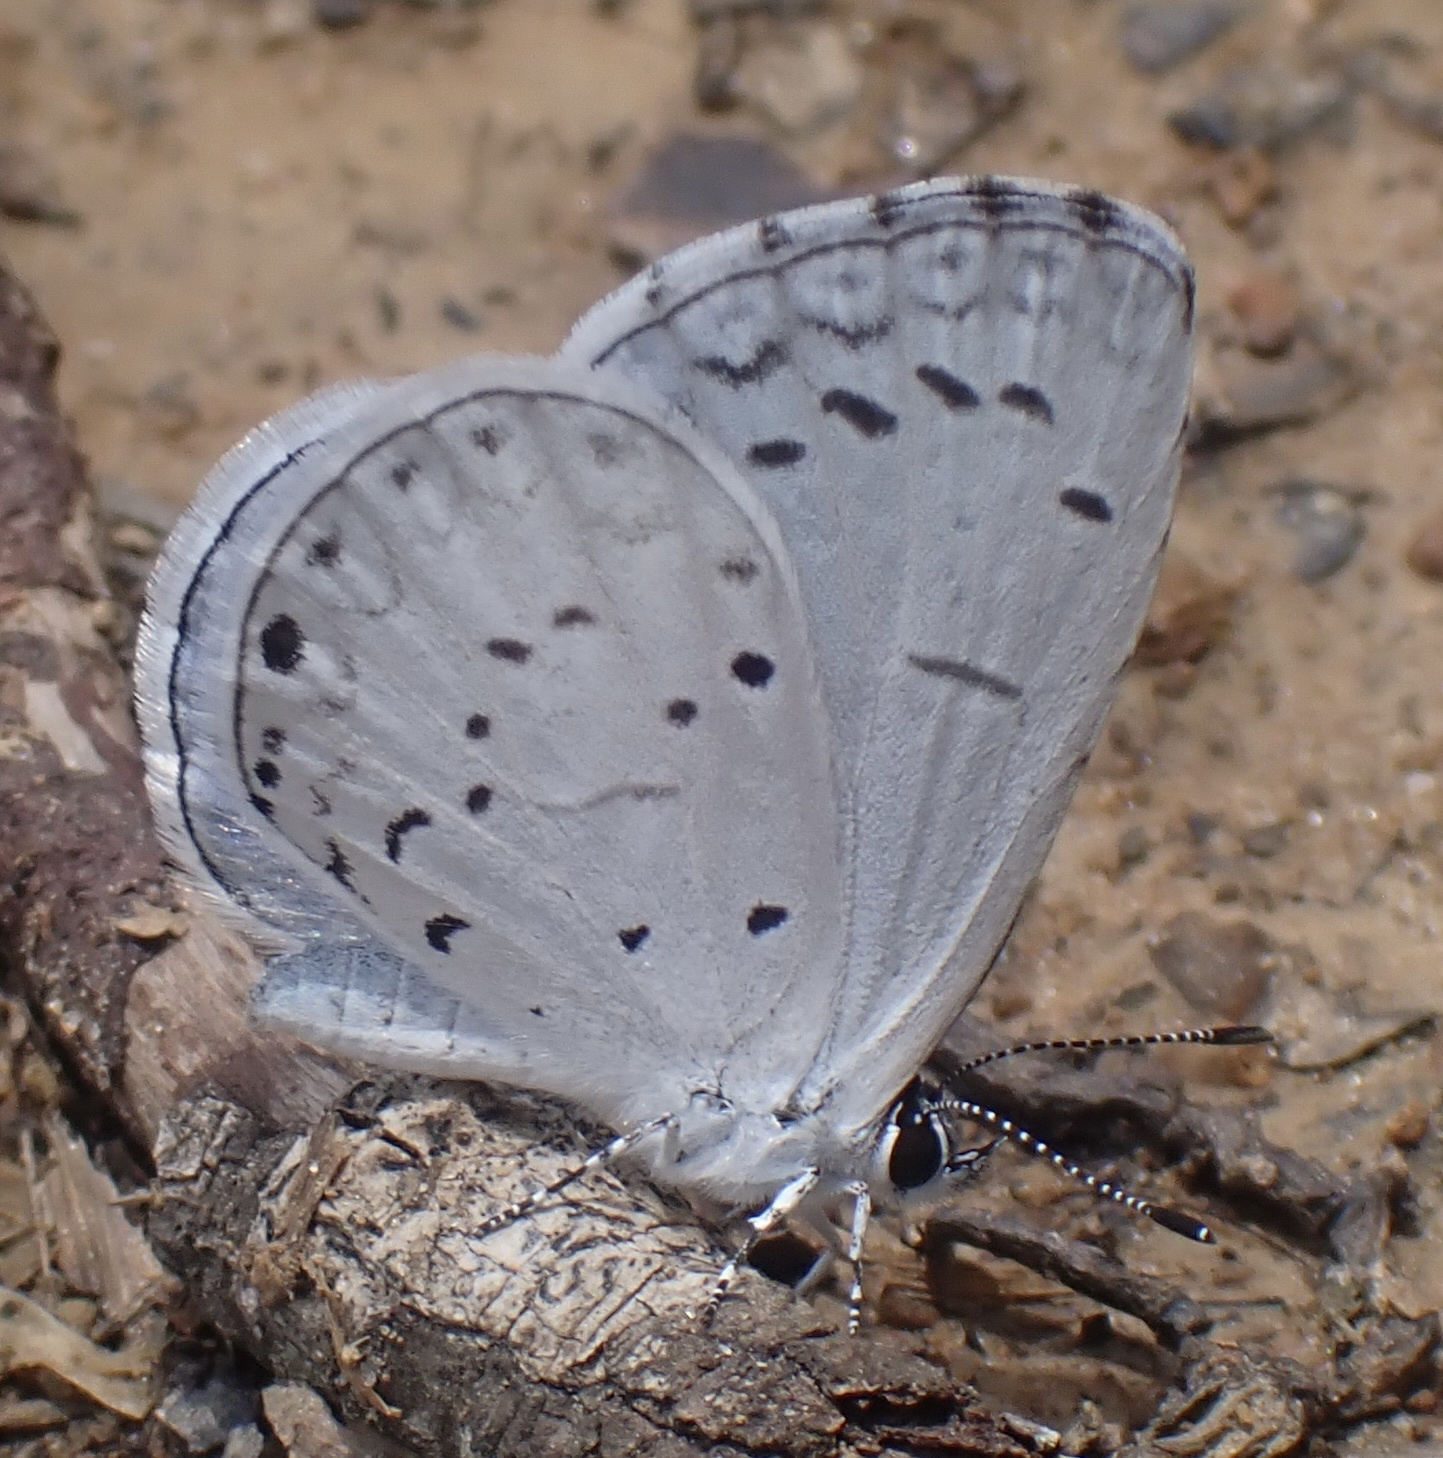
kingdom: Animalia
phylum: Arthropoda
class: Insecta
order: Lepidoptera
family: Lycaenidae
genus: Cyaniris
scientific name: Cyaniris neglecta
